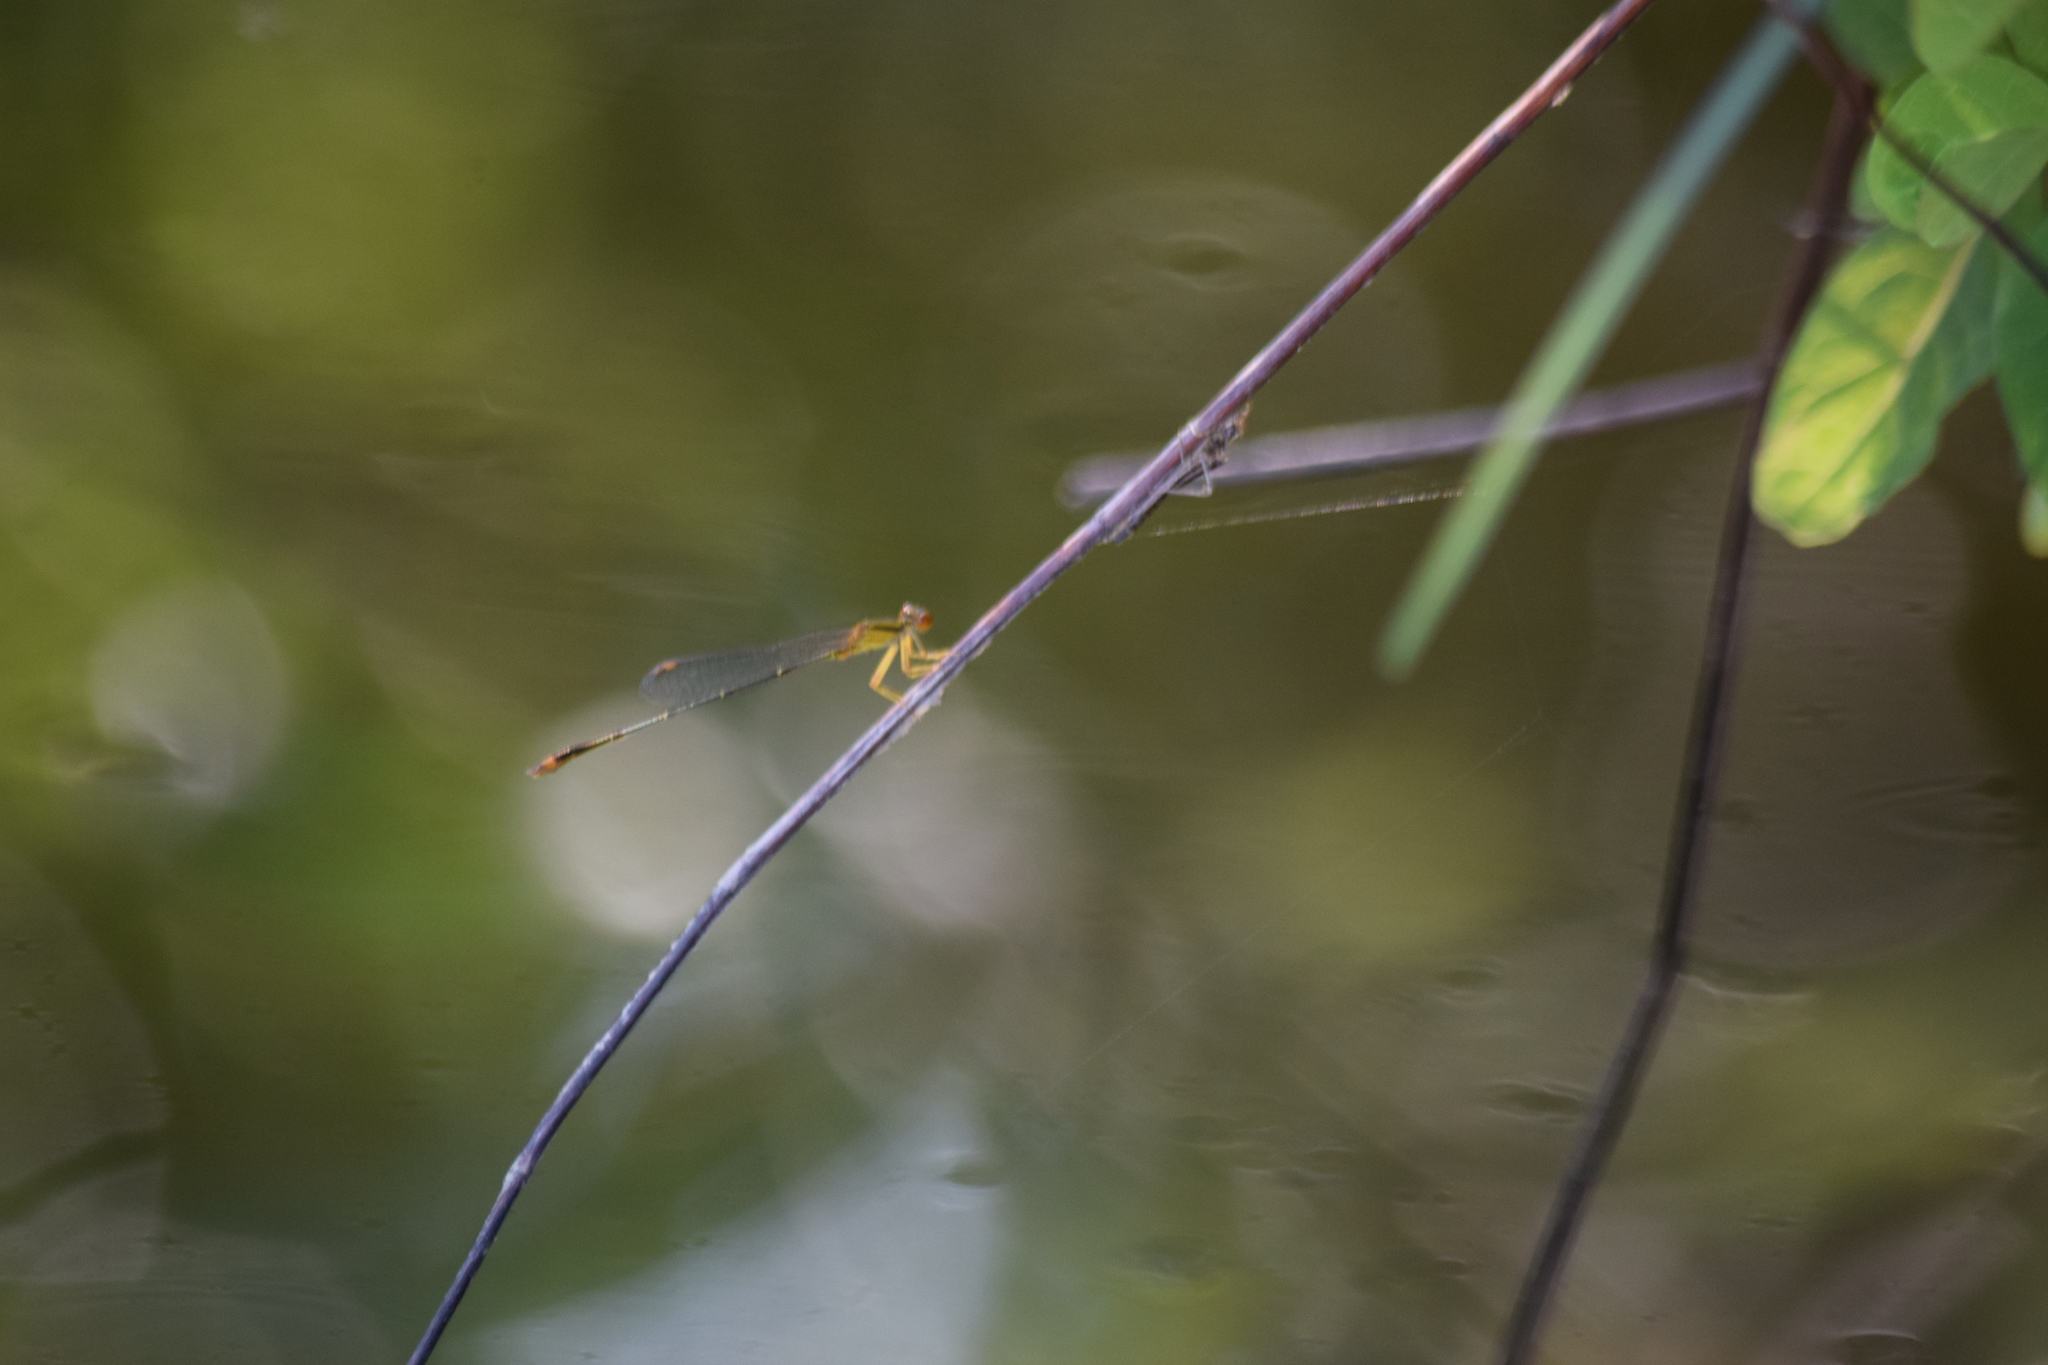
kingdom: Animalia
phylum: Arthropoda
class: Insecta
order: Odonata
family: Coenagrionidae
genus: Enallagma
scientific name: Enallagma signatum
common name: Orange bluet
